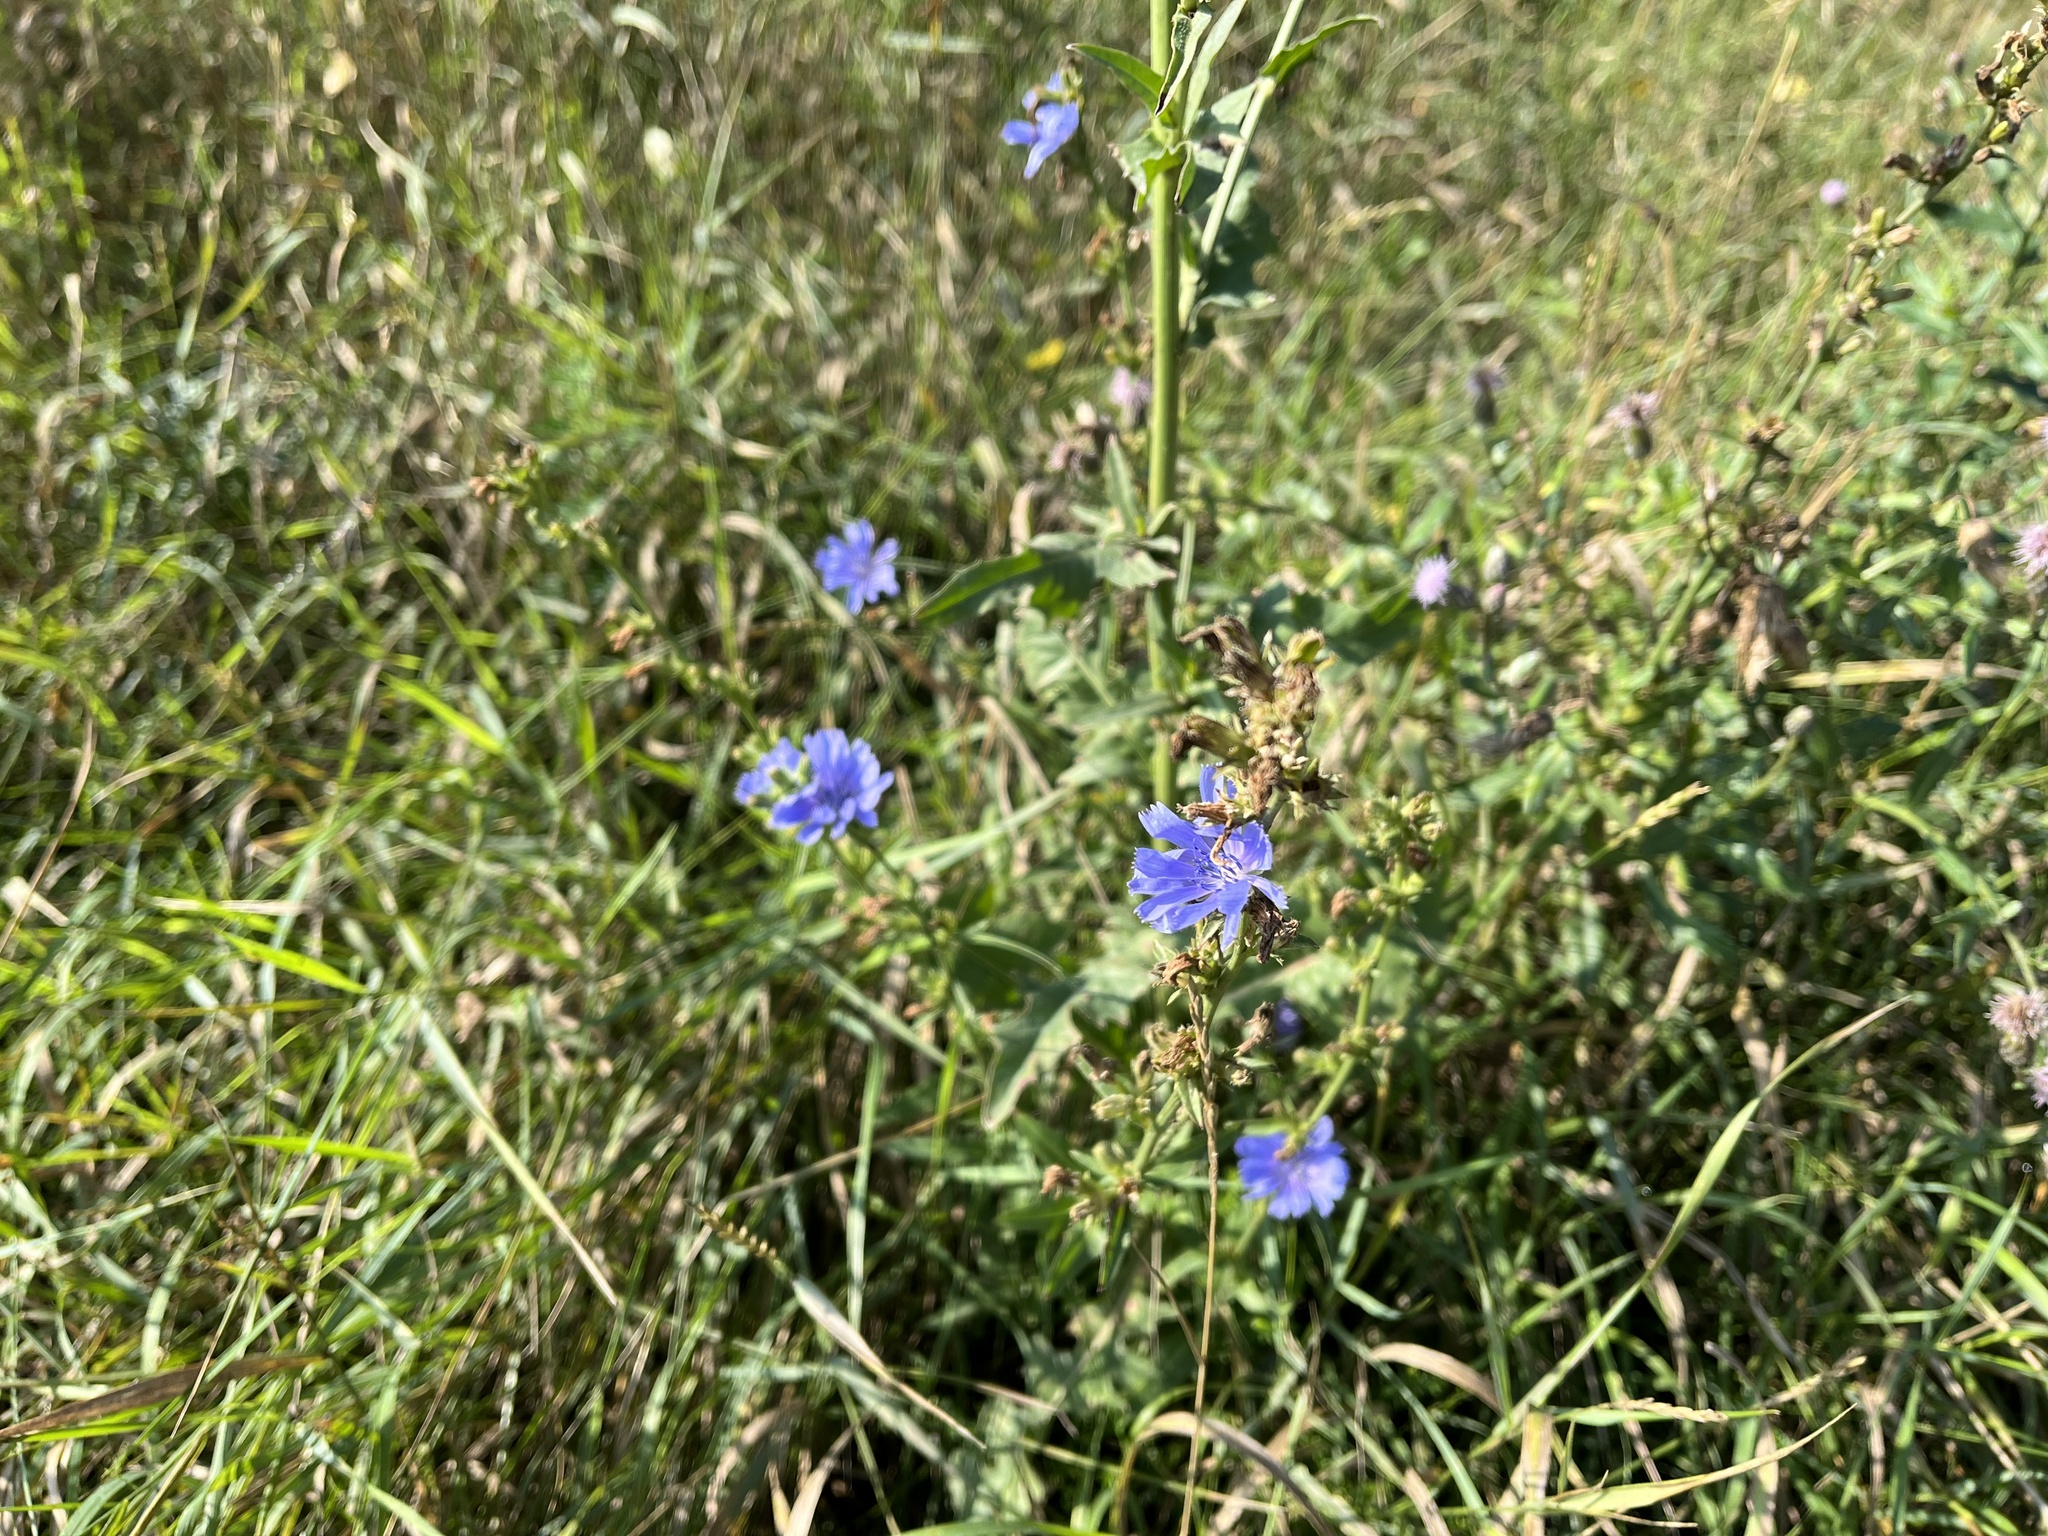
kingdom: Plantae
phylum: Tracheophyta
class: Magnoliopsida
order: Asterales
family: Asteraceae
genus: Cichorium
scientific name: Cichorium intybus
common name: Chicory
